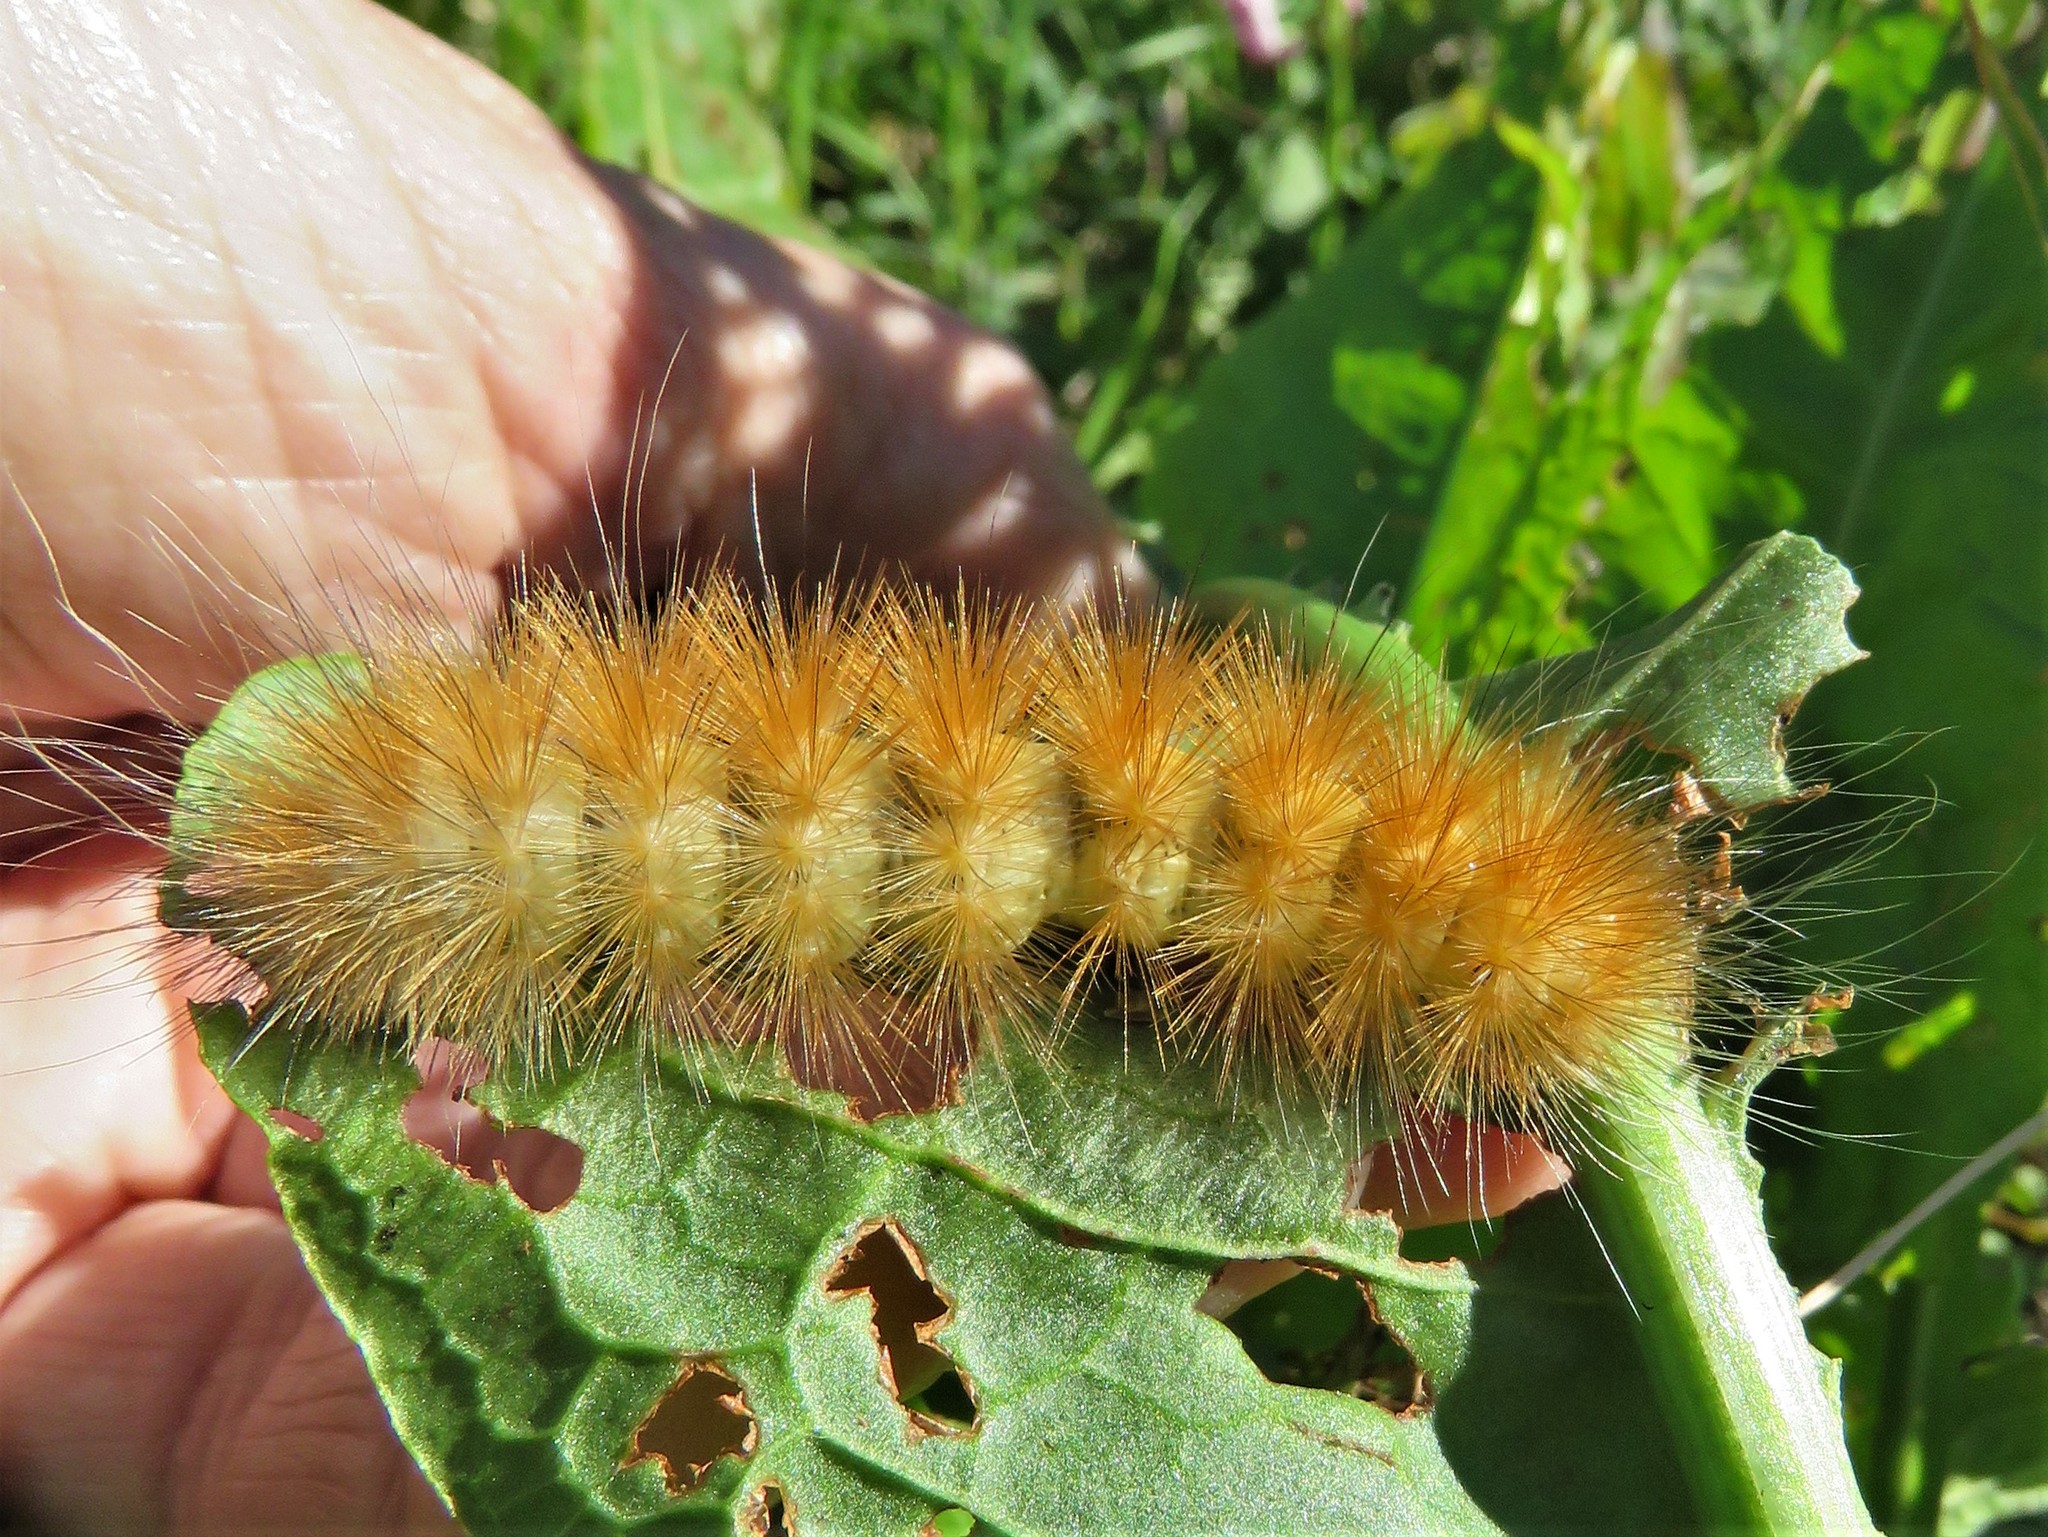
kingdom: Animalia
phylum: Arthropoda
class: Insecta
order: Lepidoptera
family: Erebidae
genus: Spilosoma
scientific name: Spilosoma virginica
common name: Virginia tiger moth
